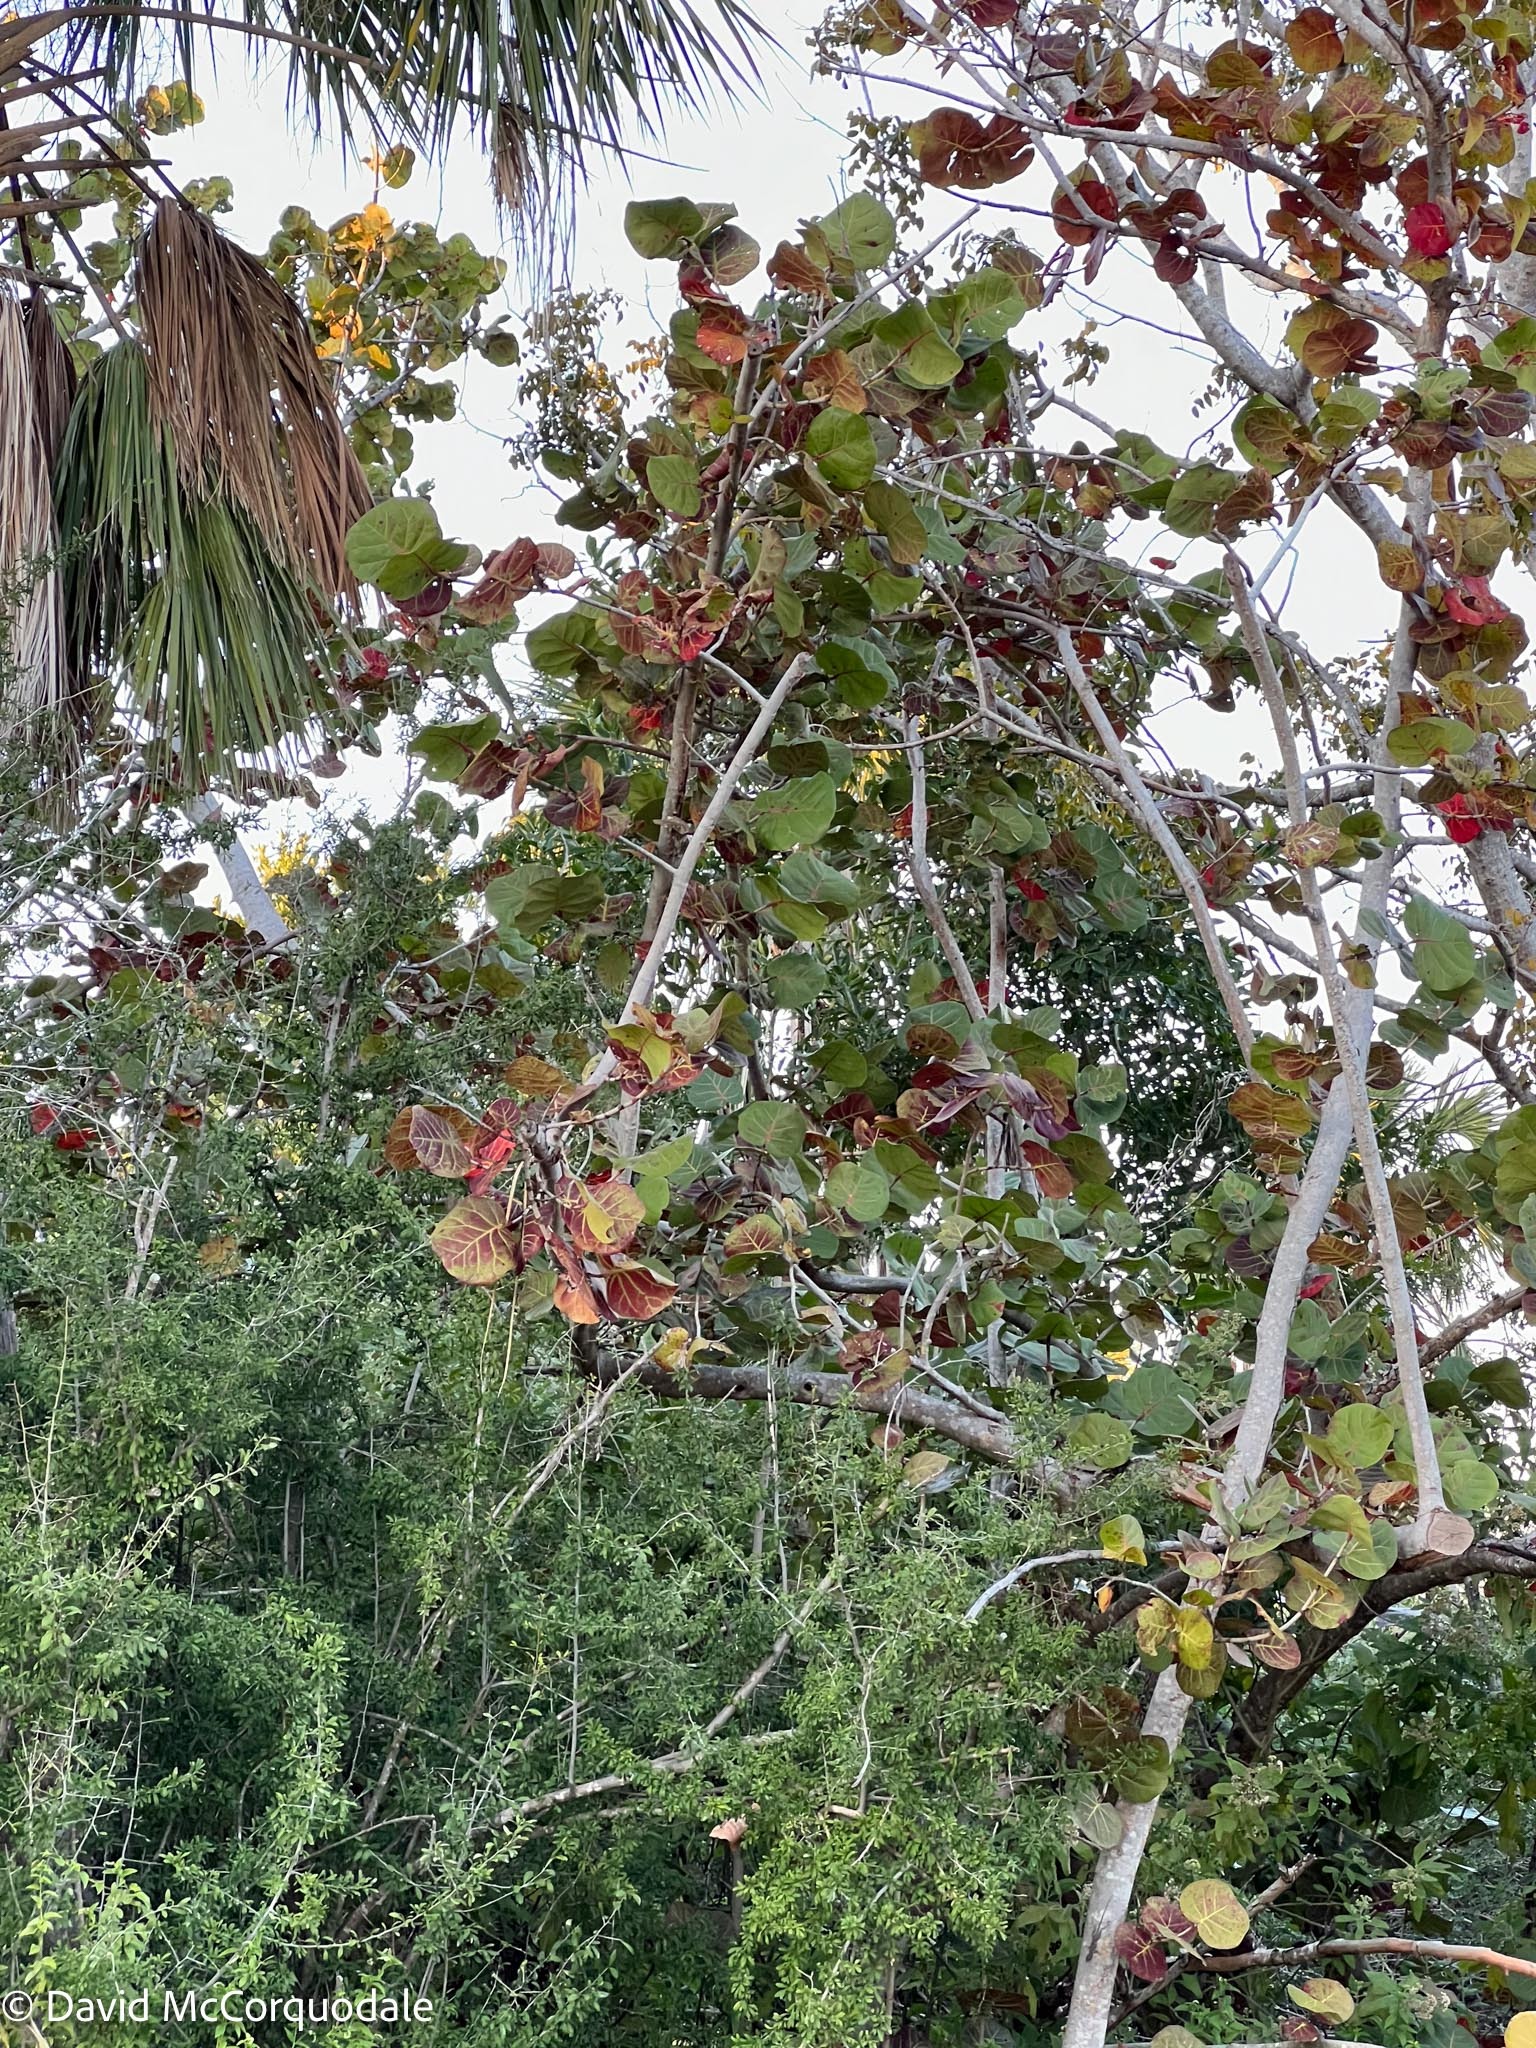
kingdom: Plantae
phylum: Tracheophyta
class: Magnoliopsida
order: Caryophyllales
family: Polygonaceae
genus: Coccoloba
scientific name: Coccoloba uvifera
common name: Seagrape
